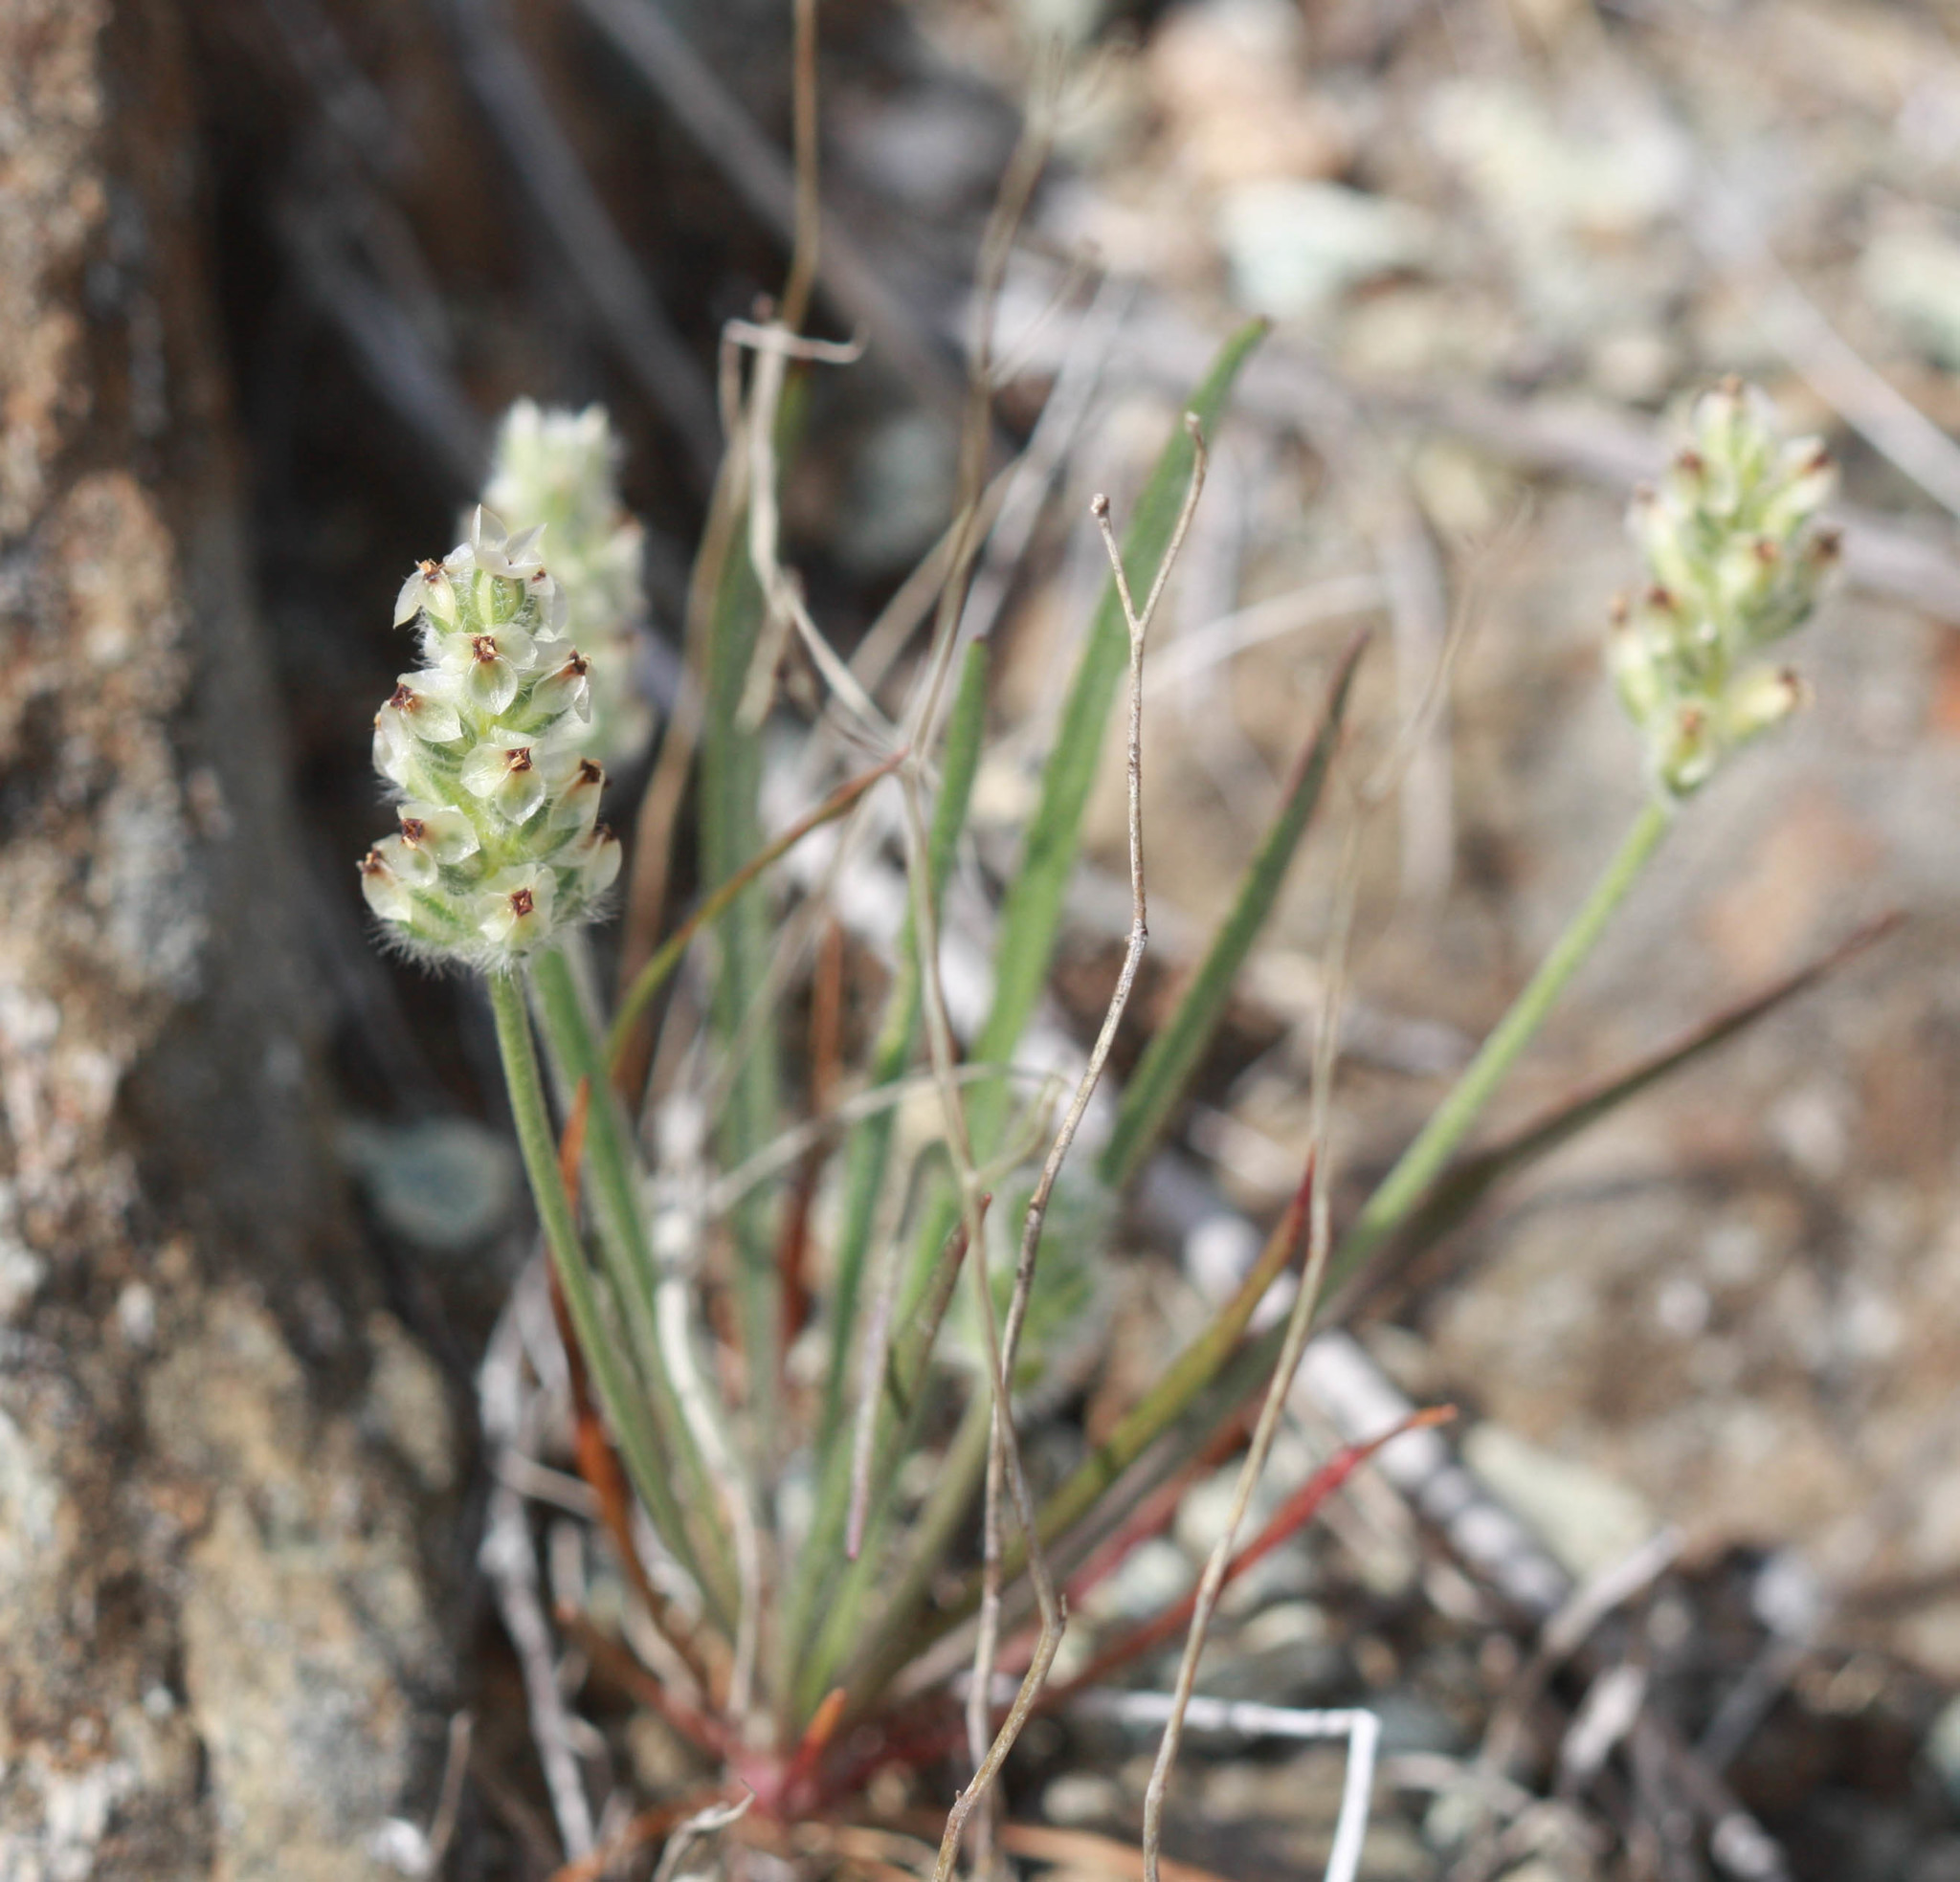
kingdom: Plantae
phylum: Tracheophyta
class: Magnoliopsida
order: Lamiales
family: Plantaginaceae
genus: Plantago
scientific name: Plantago erecta
